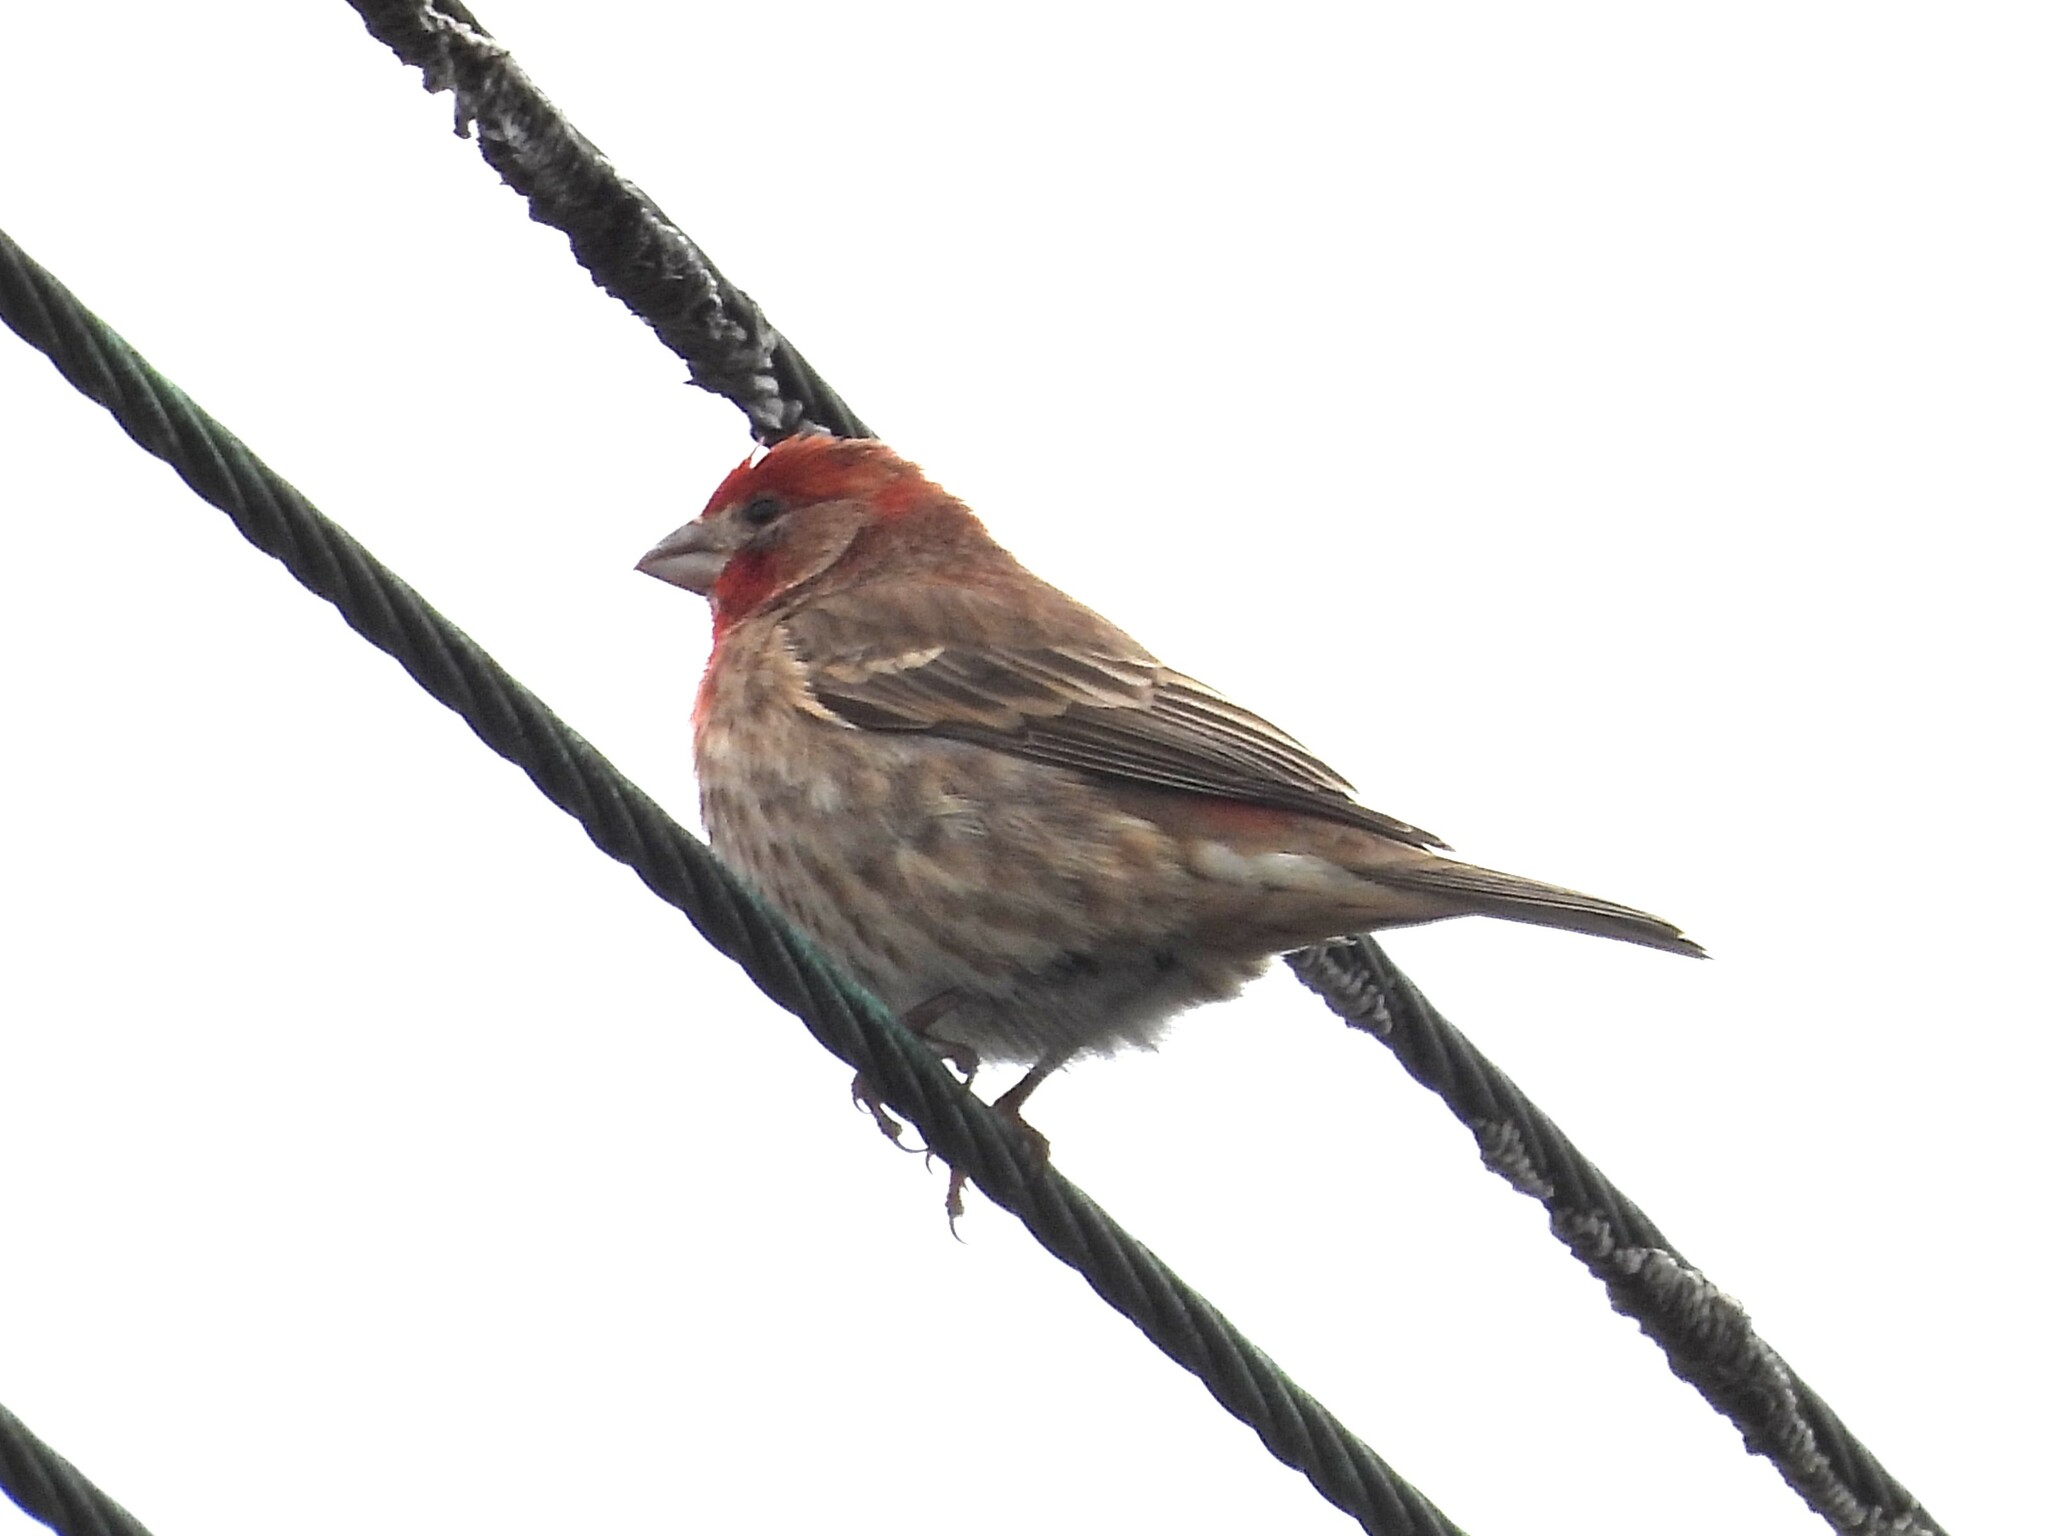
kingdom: Animalia
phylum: Chordata
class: Aves
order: Passeriformes
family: Fringillidae
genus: Haemorhous
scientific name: Haemorhous mexicanus
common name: House finch
